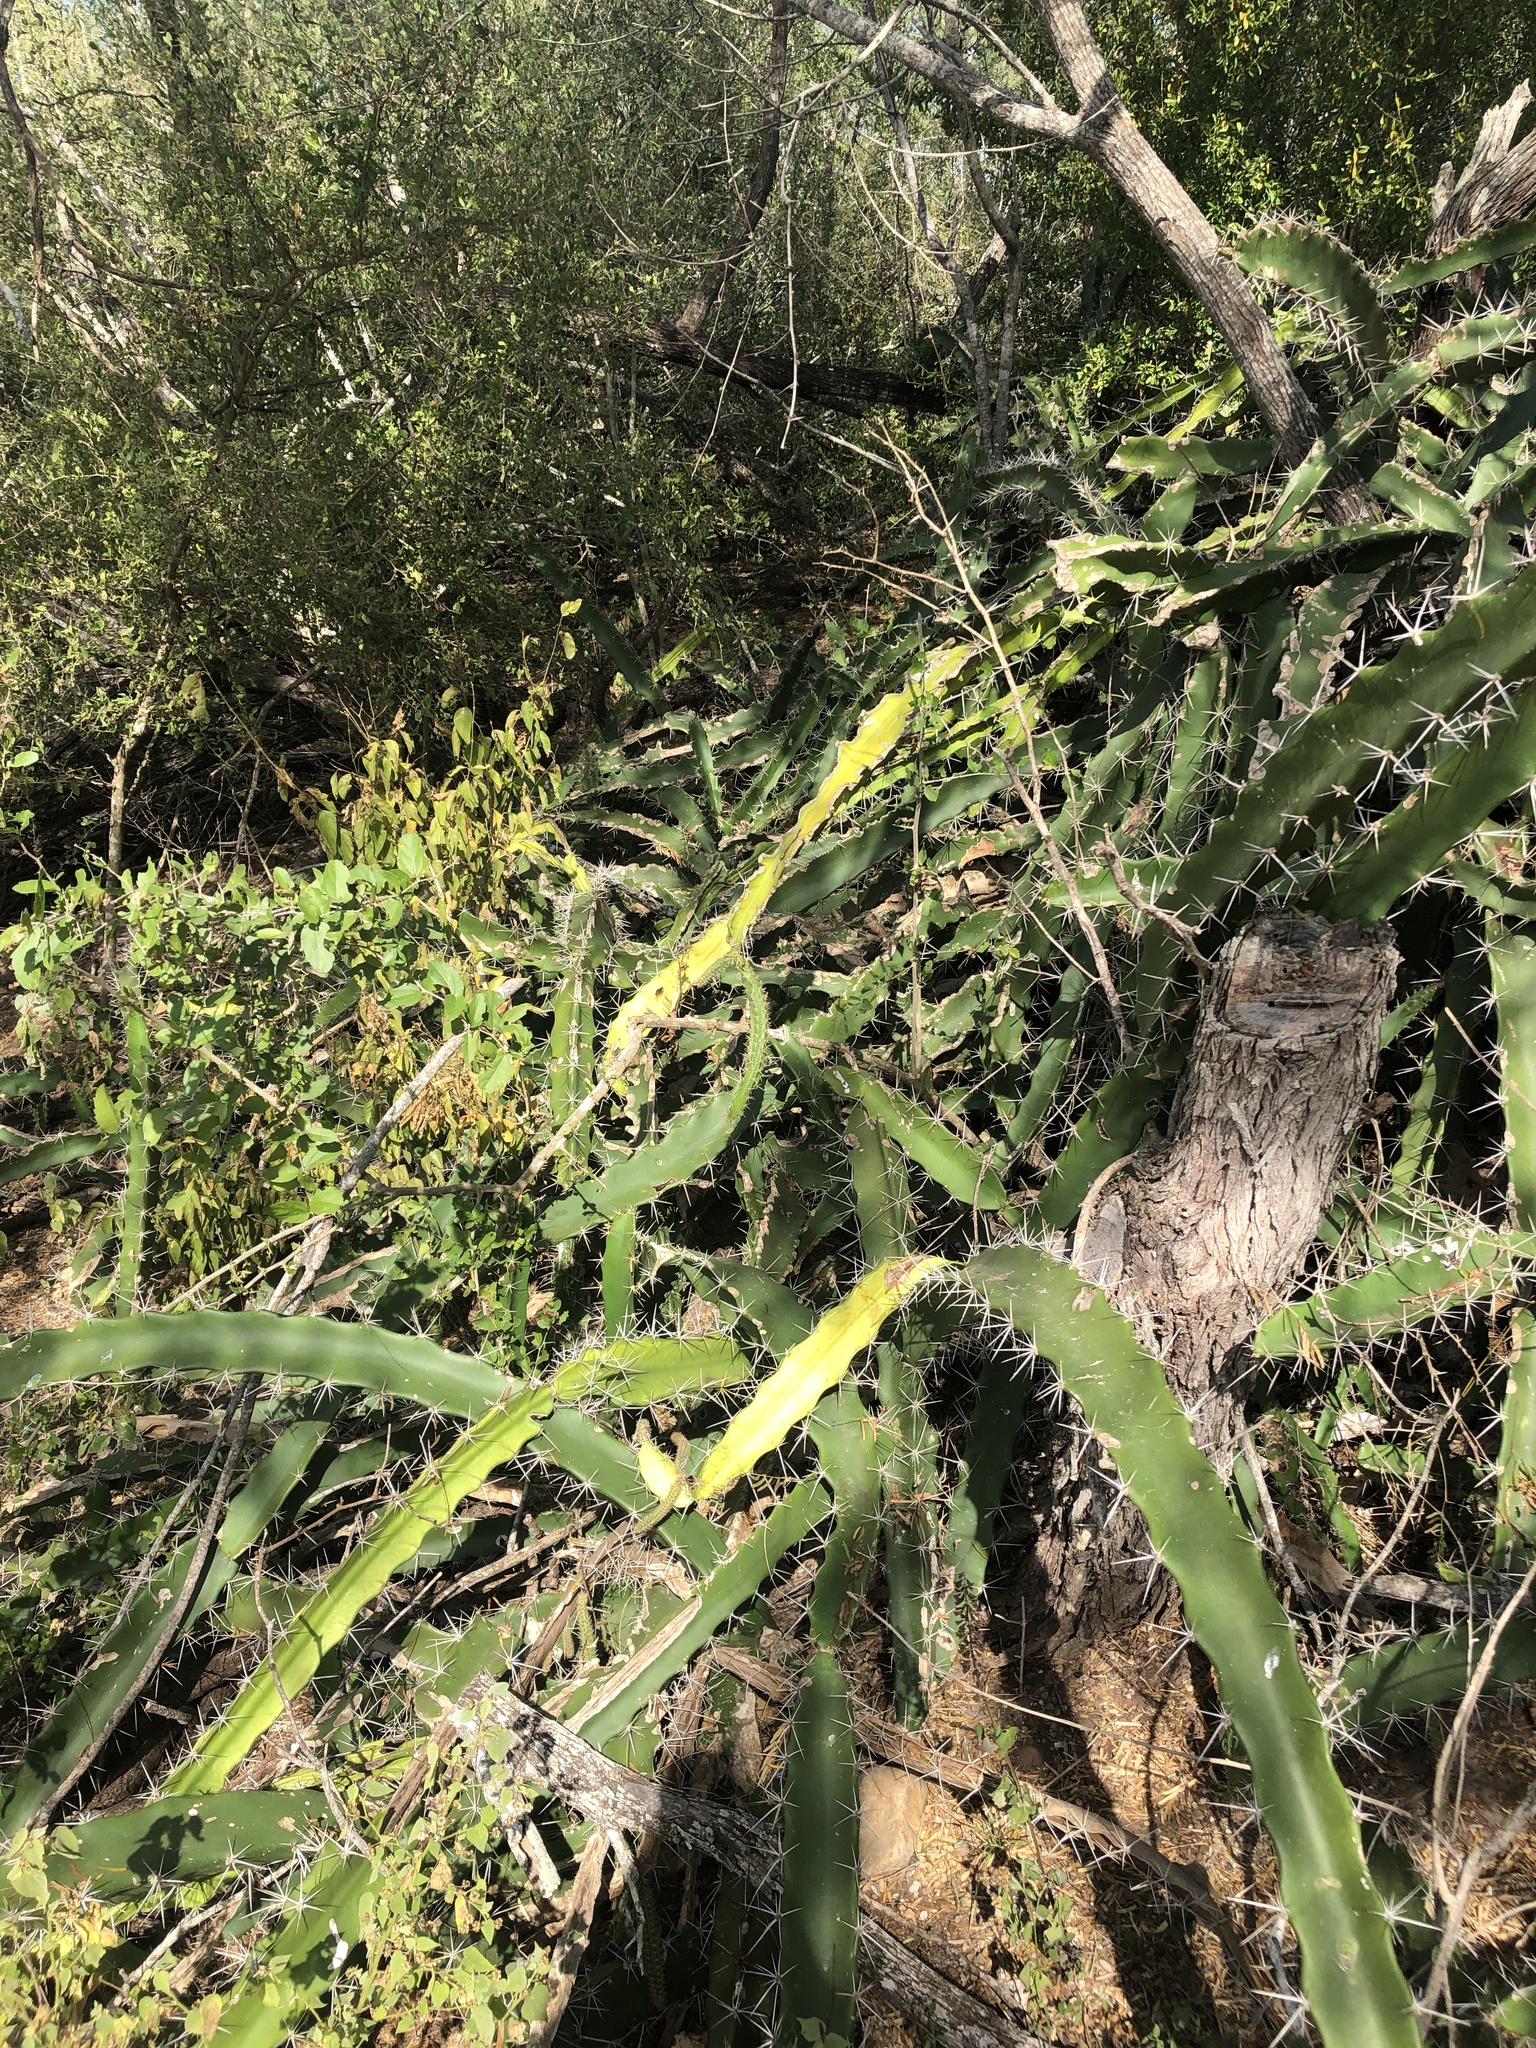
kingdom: Plantae
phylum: Tracheophyta
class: Magnoliopsida
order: Caryophyllales
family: Cactaceae
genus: Acanthocereus
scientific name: Acanthocereus tetragonus
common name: Triangle cactus
